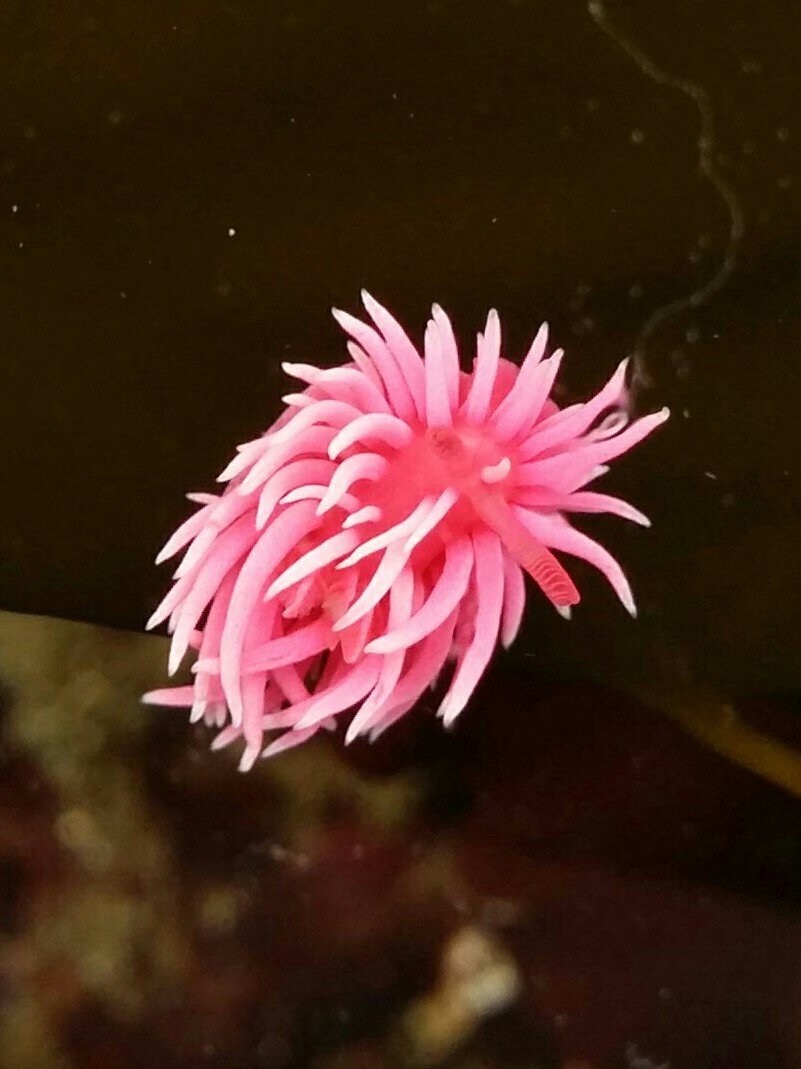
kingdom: Animalia
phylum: Mollusca
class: Gastropoda
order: Nudibranchia
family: Goniodorididae
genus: Okenia
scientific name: Okenia
